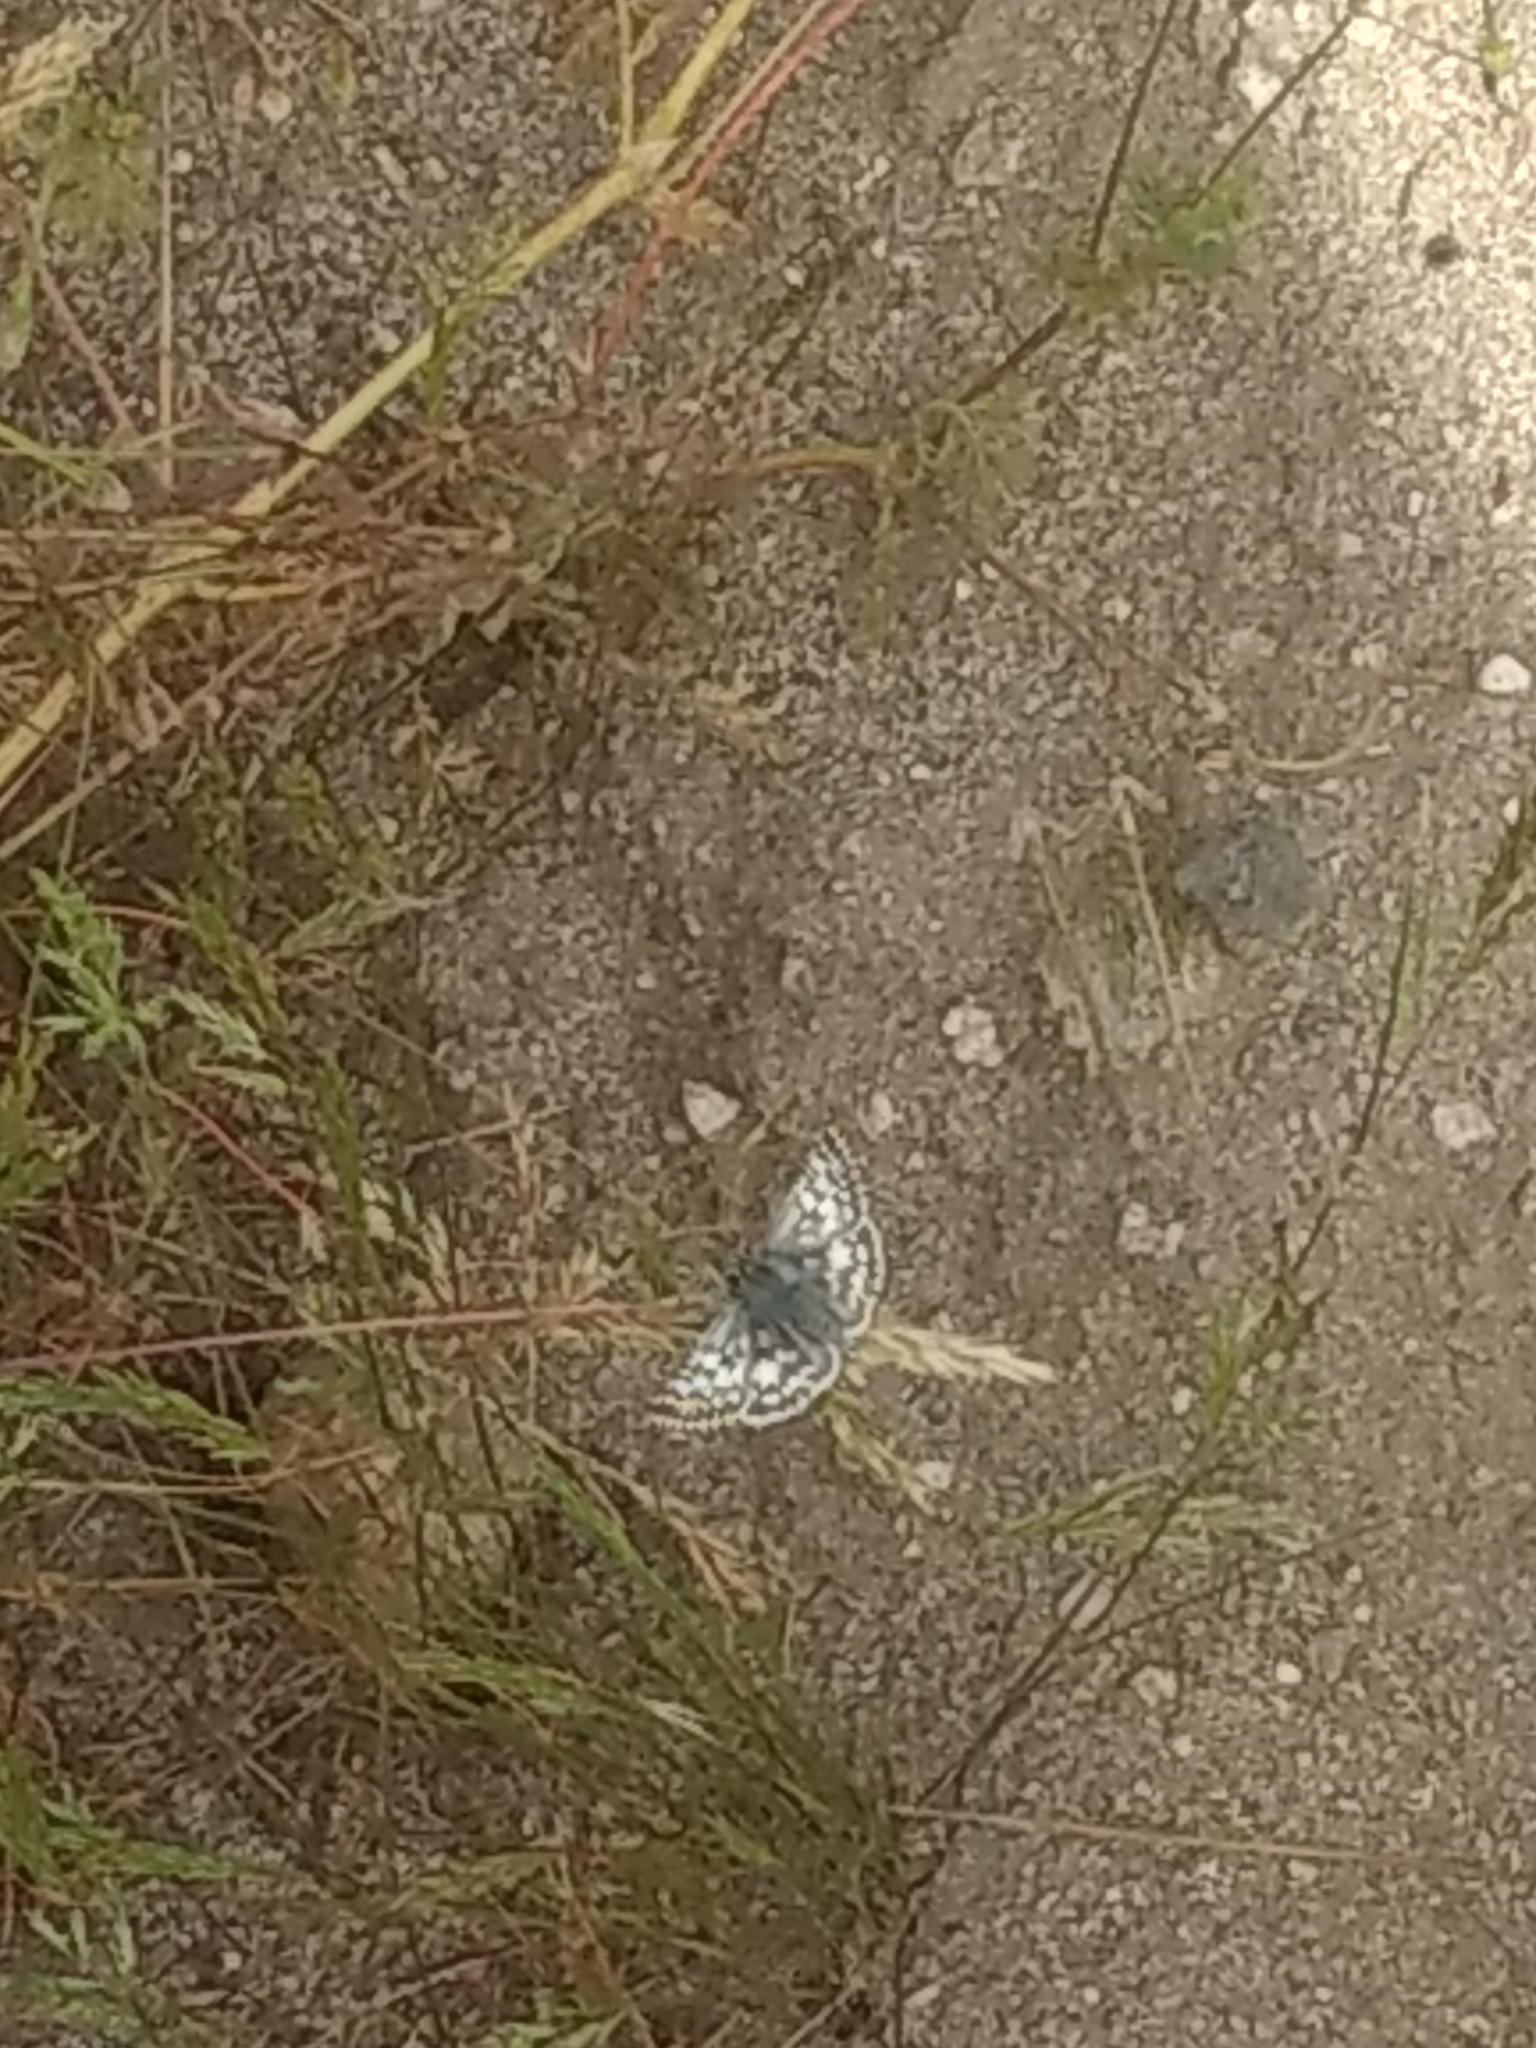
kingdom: Animalia
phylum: Arthropoda
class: Insecta
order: Lepidoptera
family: Hesperiidae
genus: Burnsius
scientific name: Burnsius albezens
